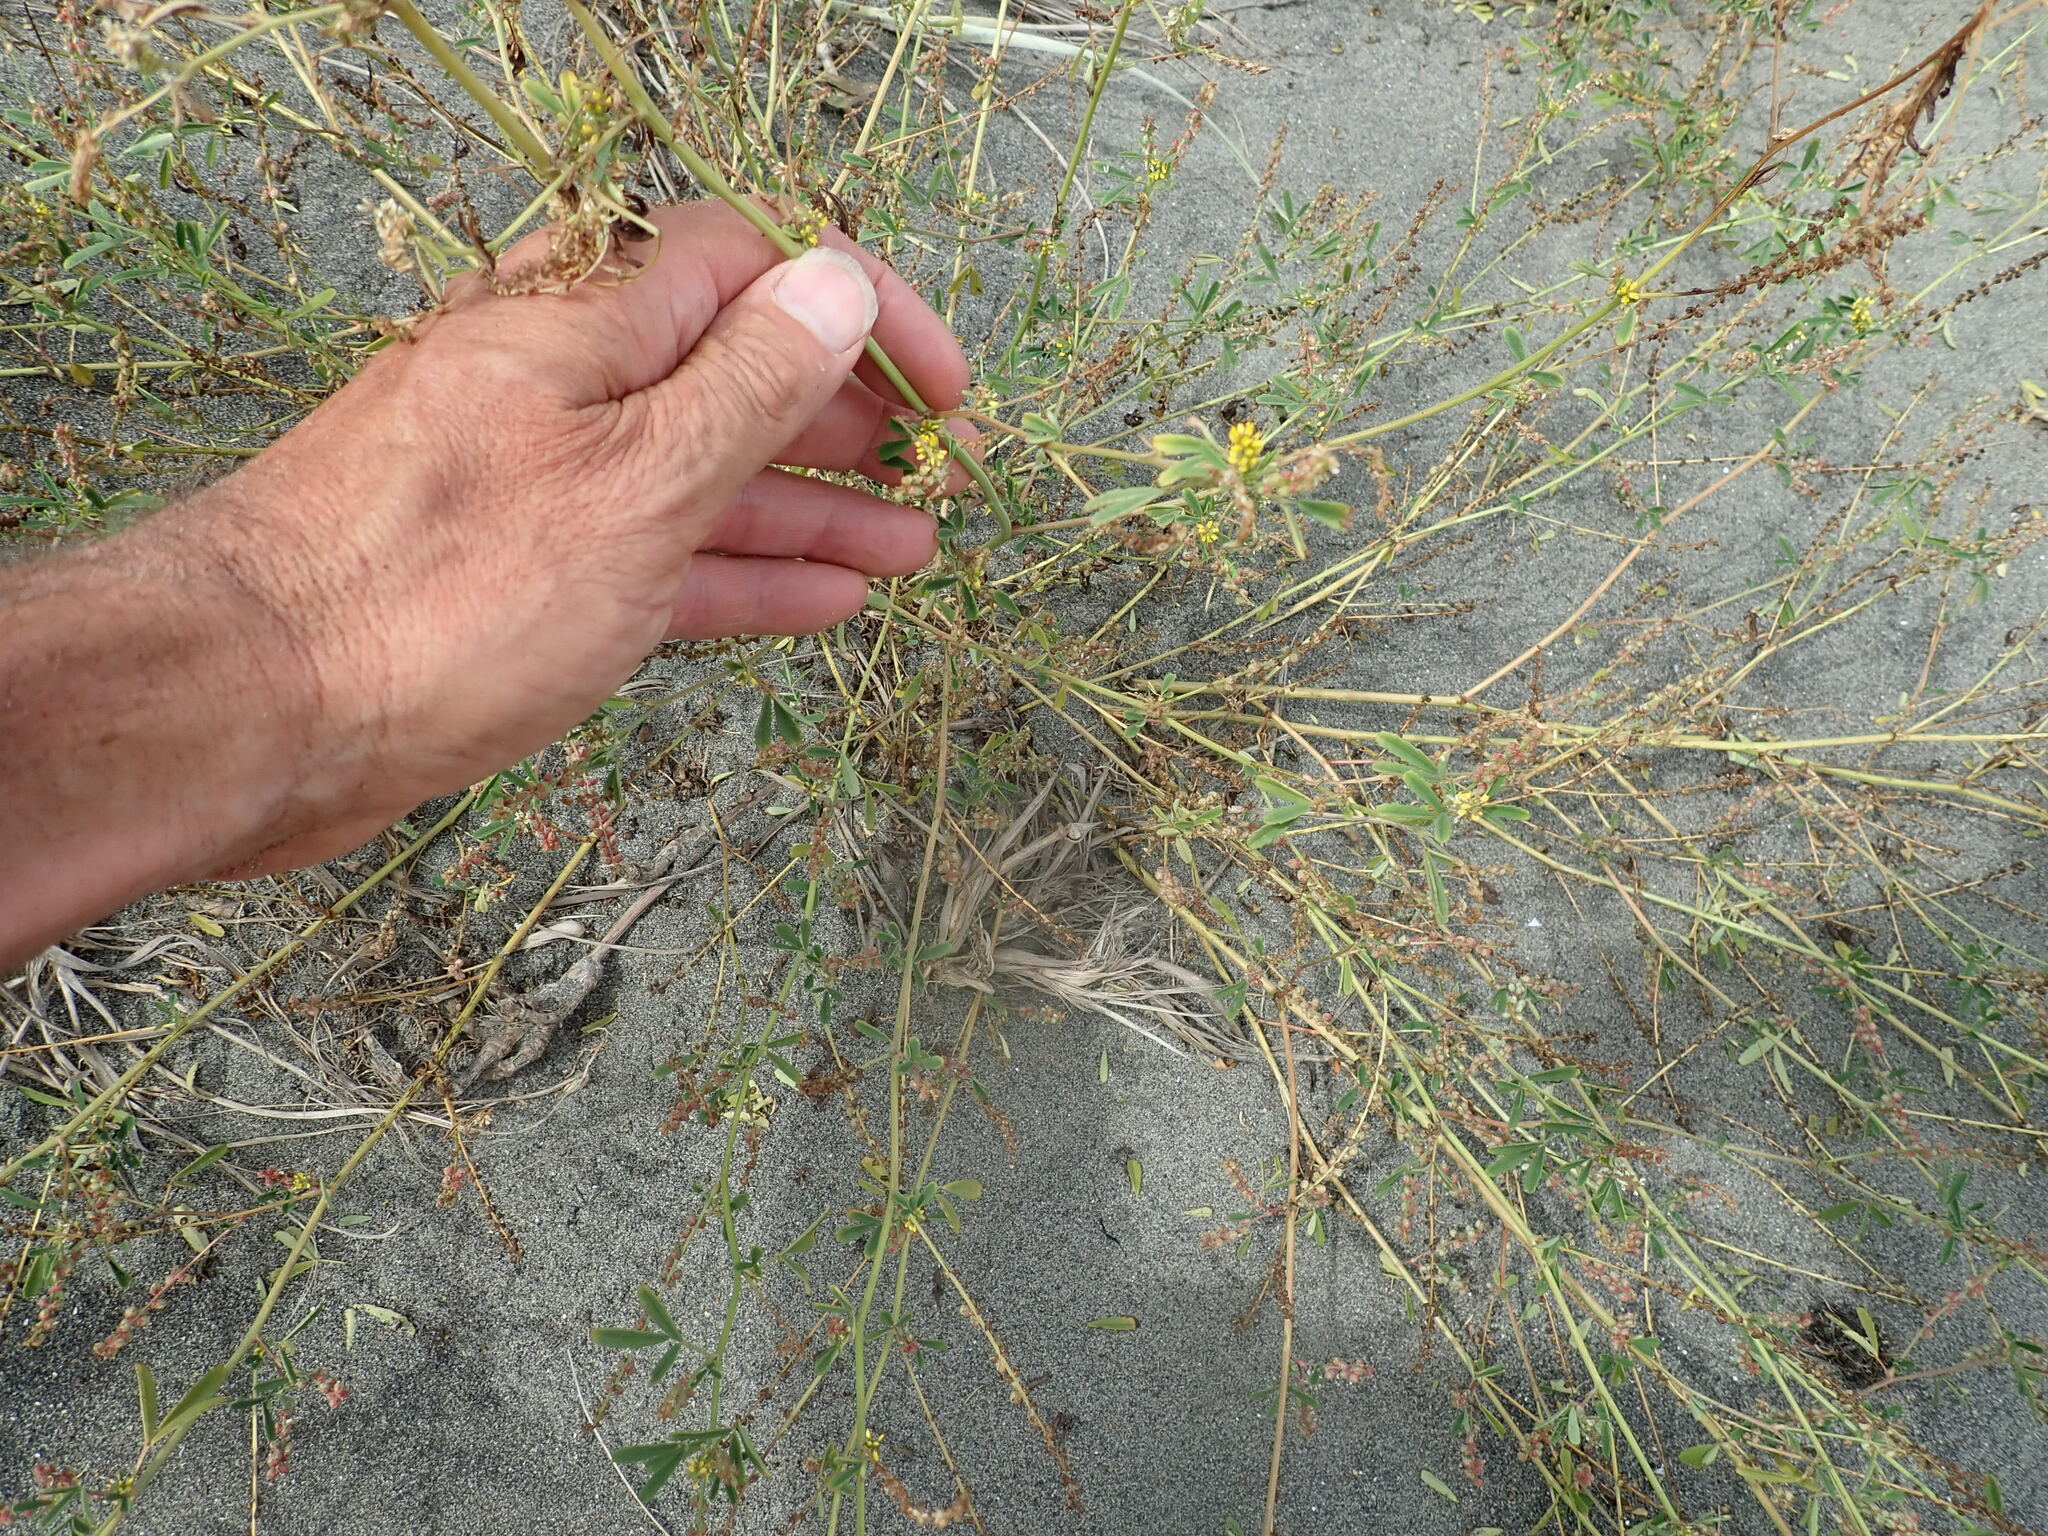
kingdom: Plantae
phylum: Tracheophyta
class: Magnoliopsida
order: Fabales
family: Fabaceae
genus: Melilotus
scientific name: Melilotus indicus
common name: Small melilot
